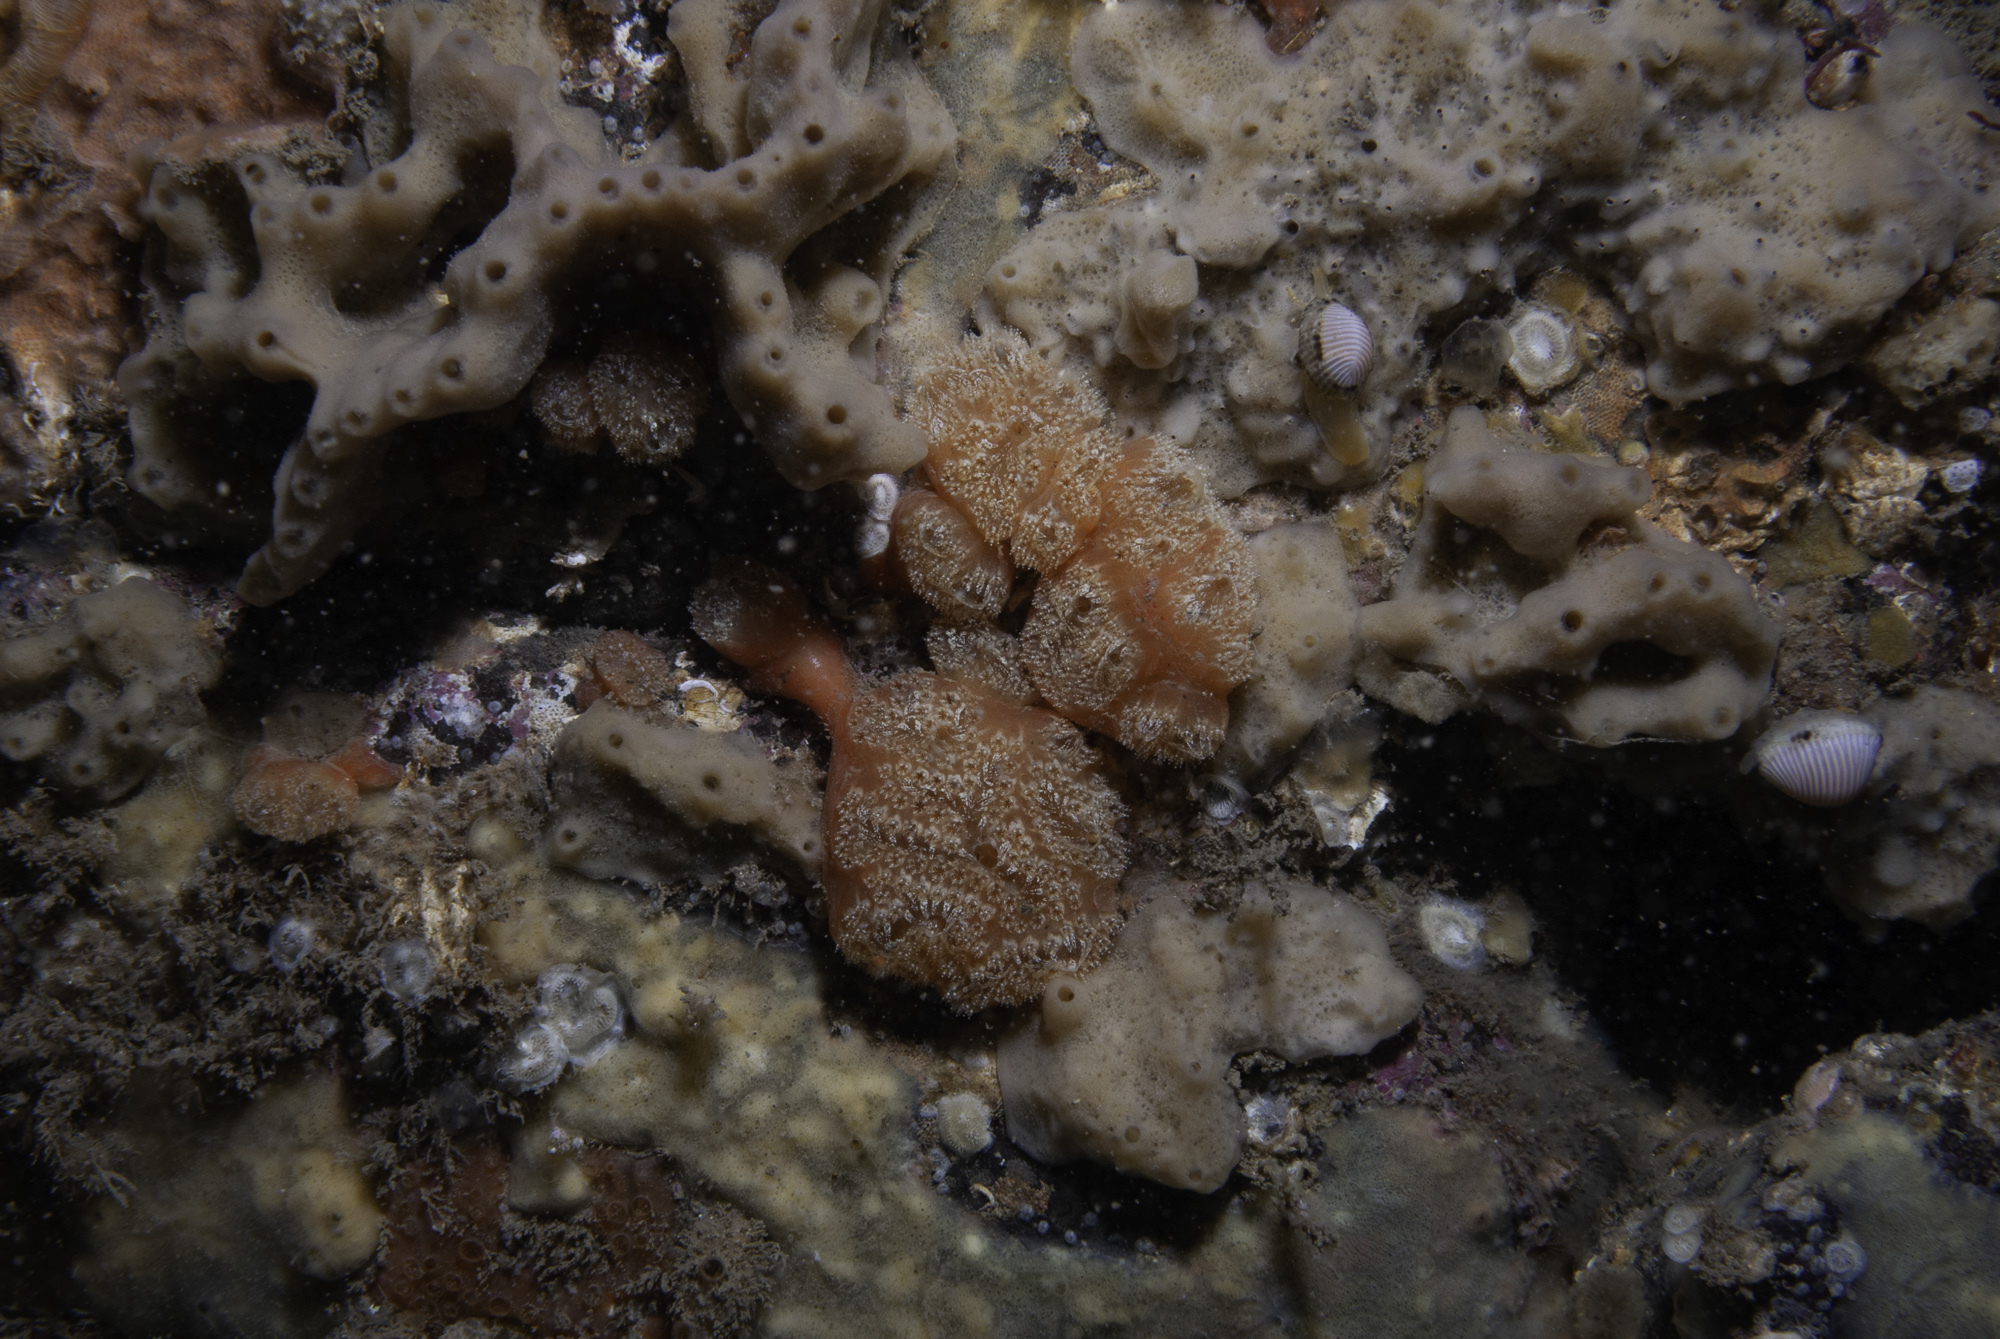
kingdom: Animalia
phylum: Chordata
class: Ascidiacea
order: Aplousobranchia
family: Polyclinidae
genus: Aplidium
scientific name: Aplidium nordmanni
